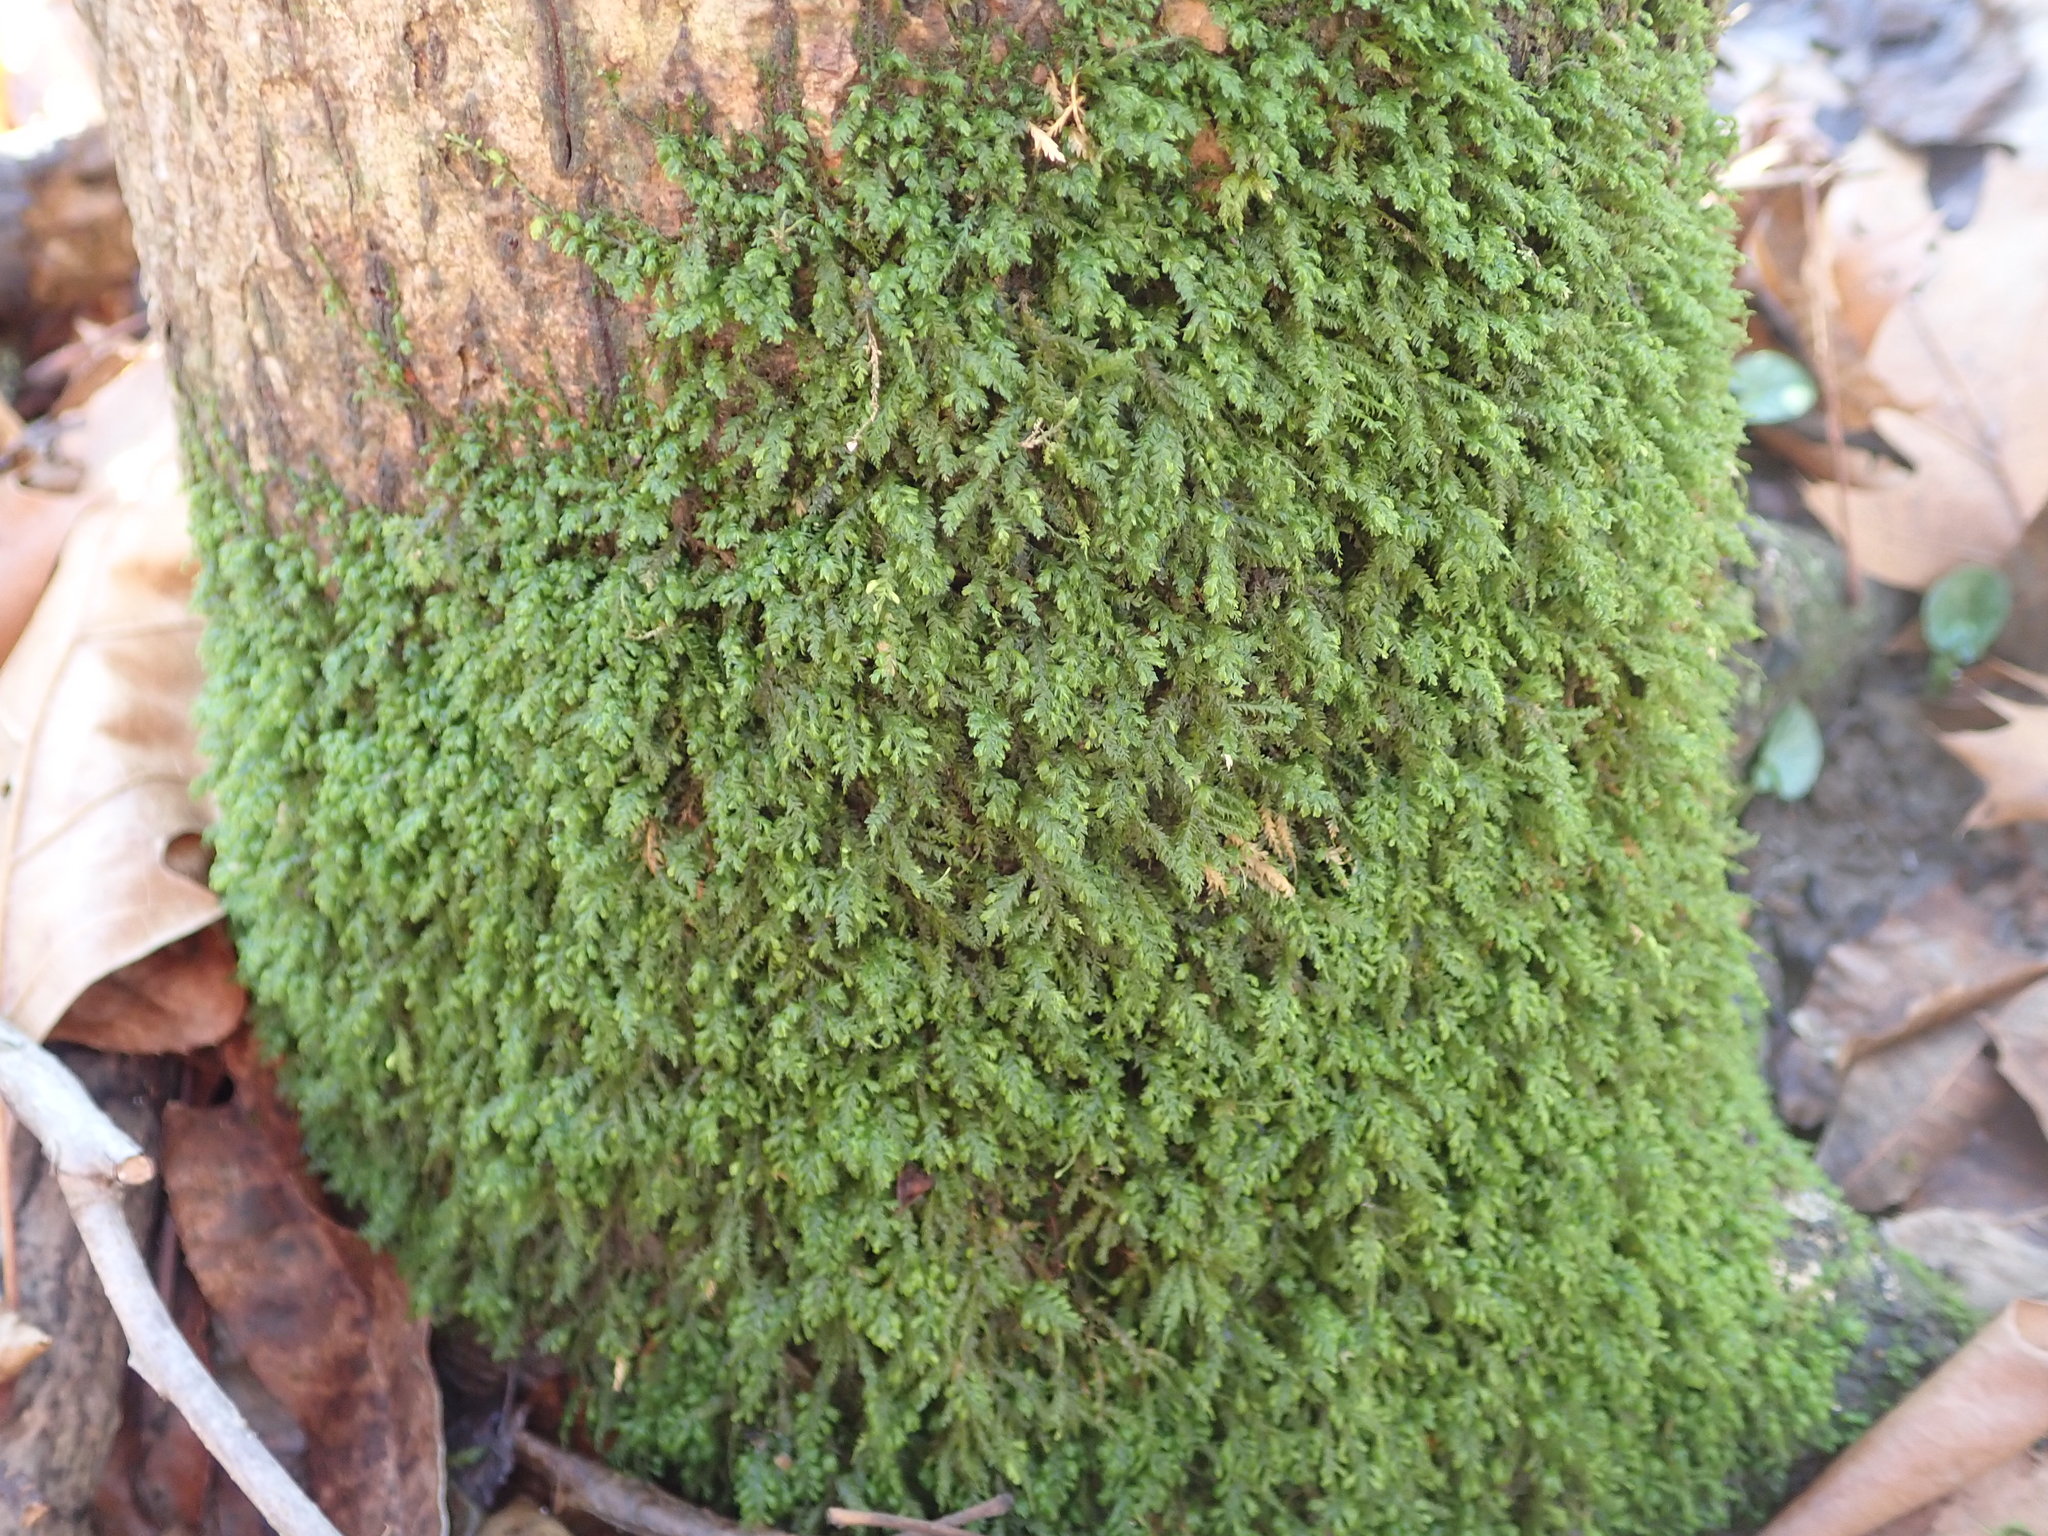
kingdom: Plantae
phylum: Bryophyta
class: Bryopsida
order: Hypnales
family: Neckeraceae
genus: Pseudanomodon
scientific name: Pseudanomodon attenuatus
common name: Tree-skirt moss
